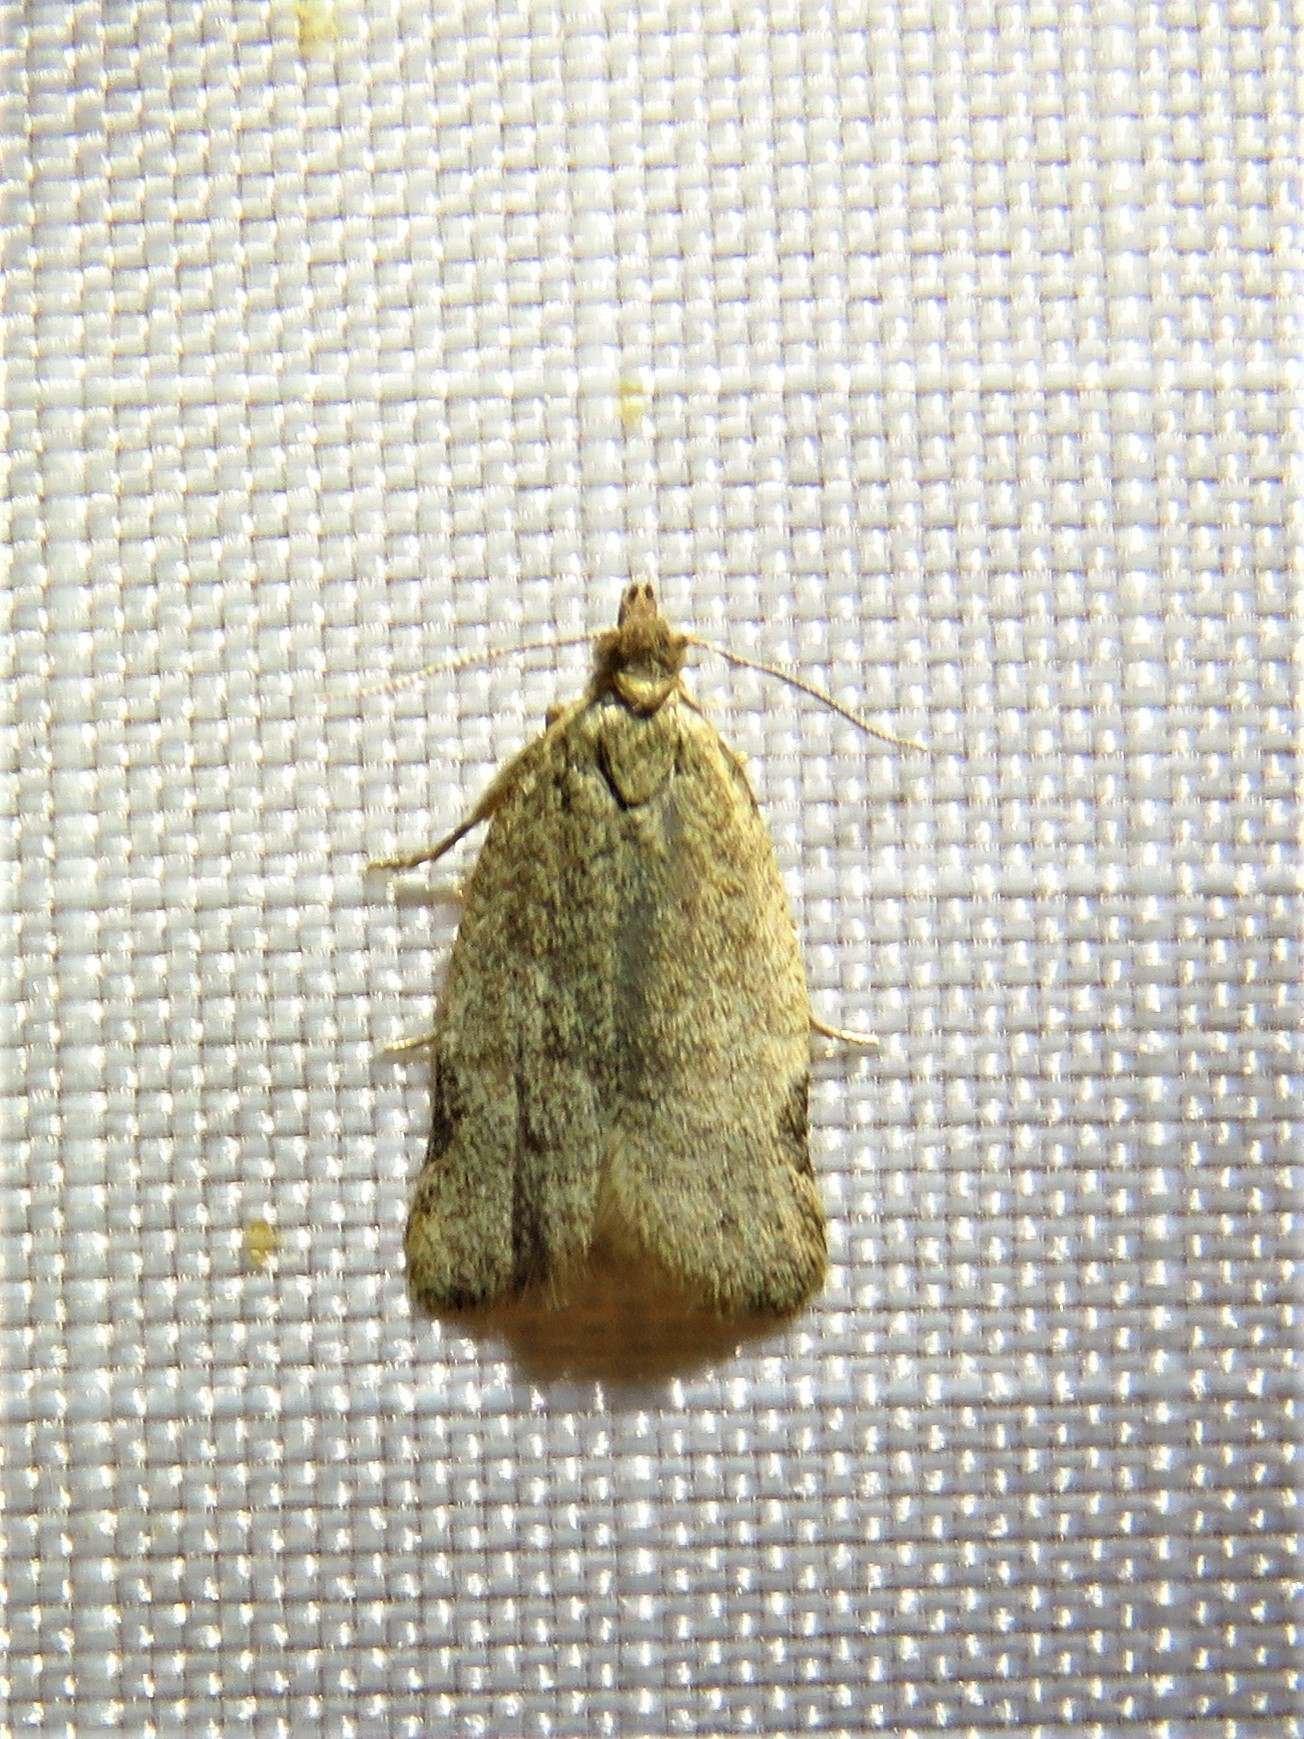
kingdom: Animalia
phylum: Arthropoda
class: Insecta
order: Lepidoptera
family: Tortricidae
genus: Clepsis
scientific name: Clepsis virescana
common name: Greenish apple moth
